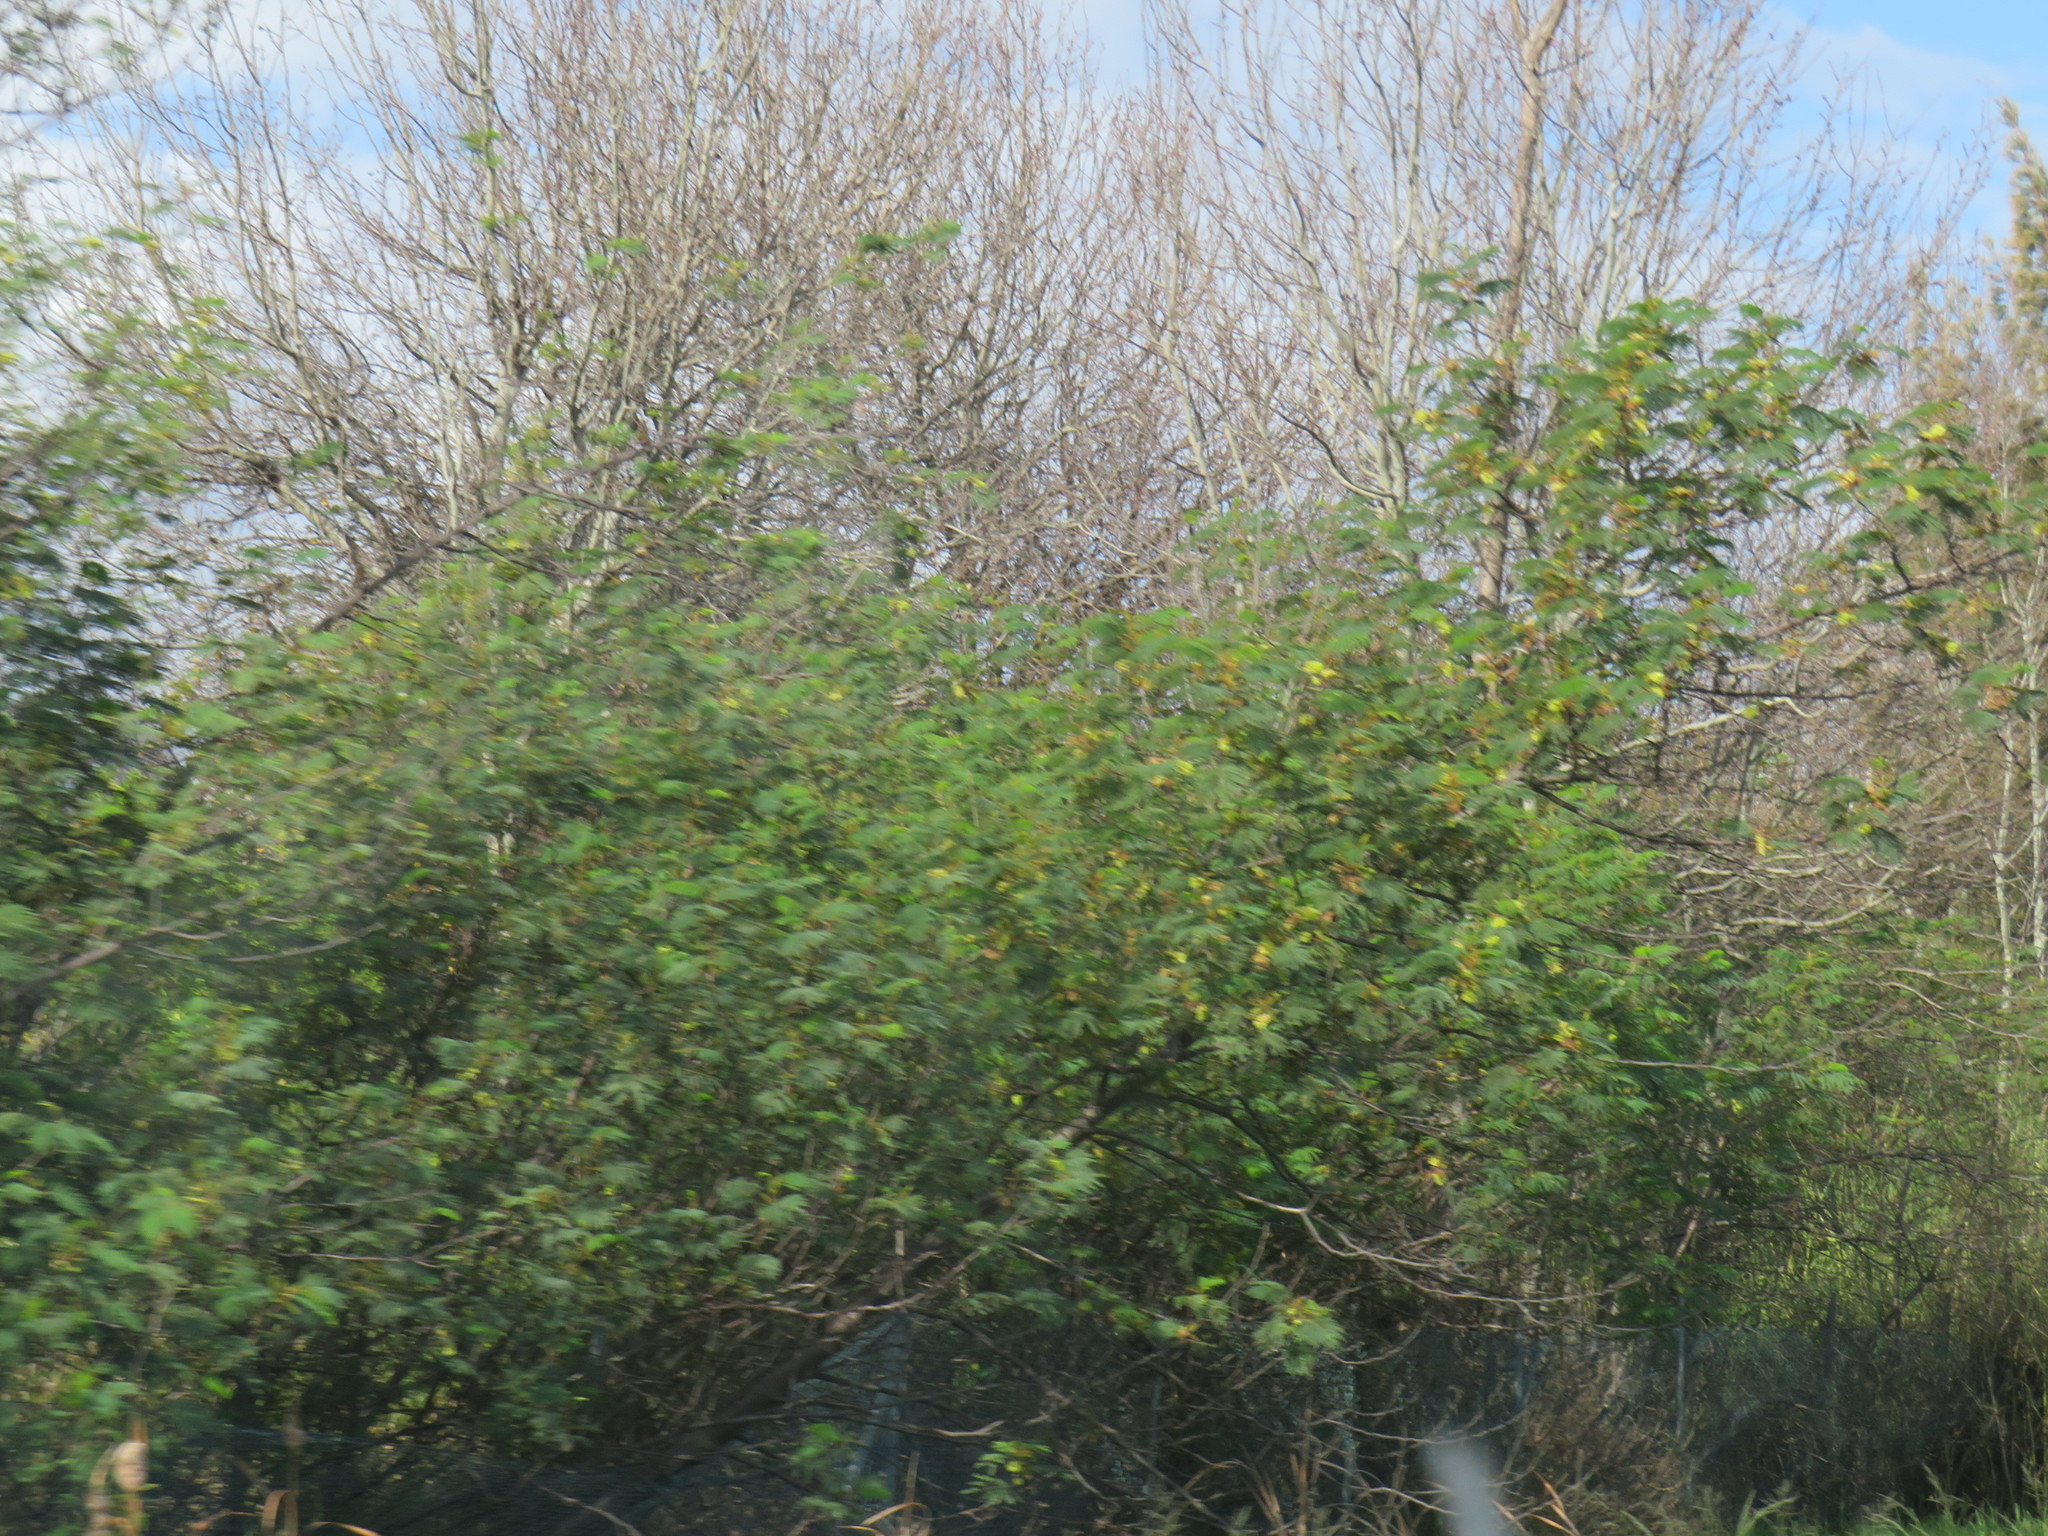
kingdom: Plantae
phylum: Tracheophyta
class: Magnoliopsida
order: Fabales
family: Fabaceae
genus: Paraserianthes
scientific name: Paraserianthes lophantha
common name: Plume albizia
